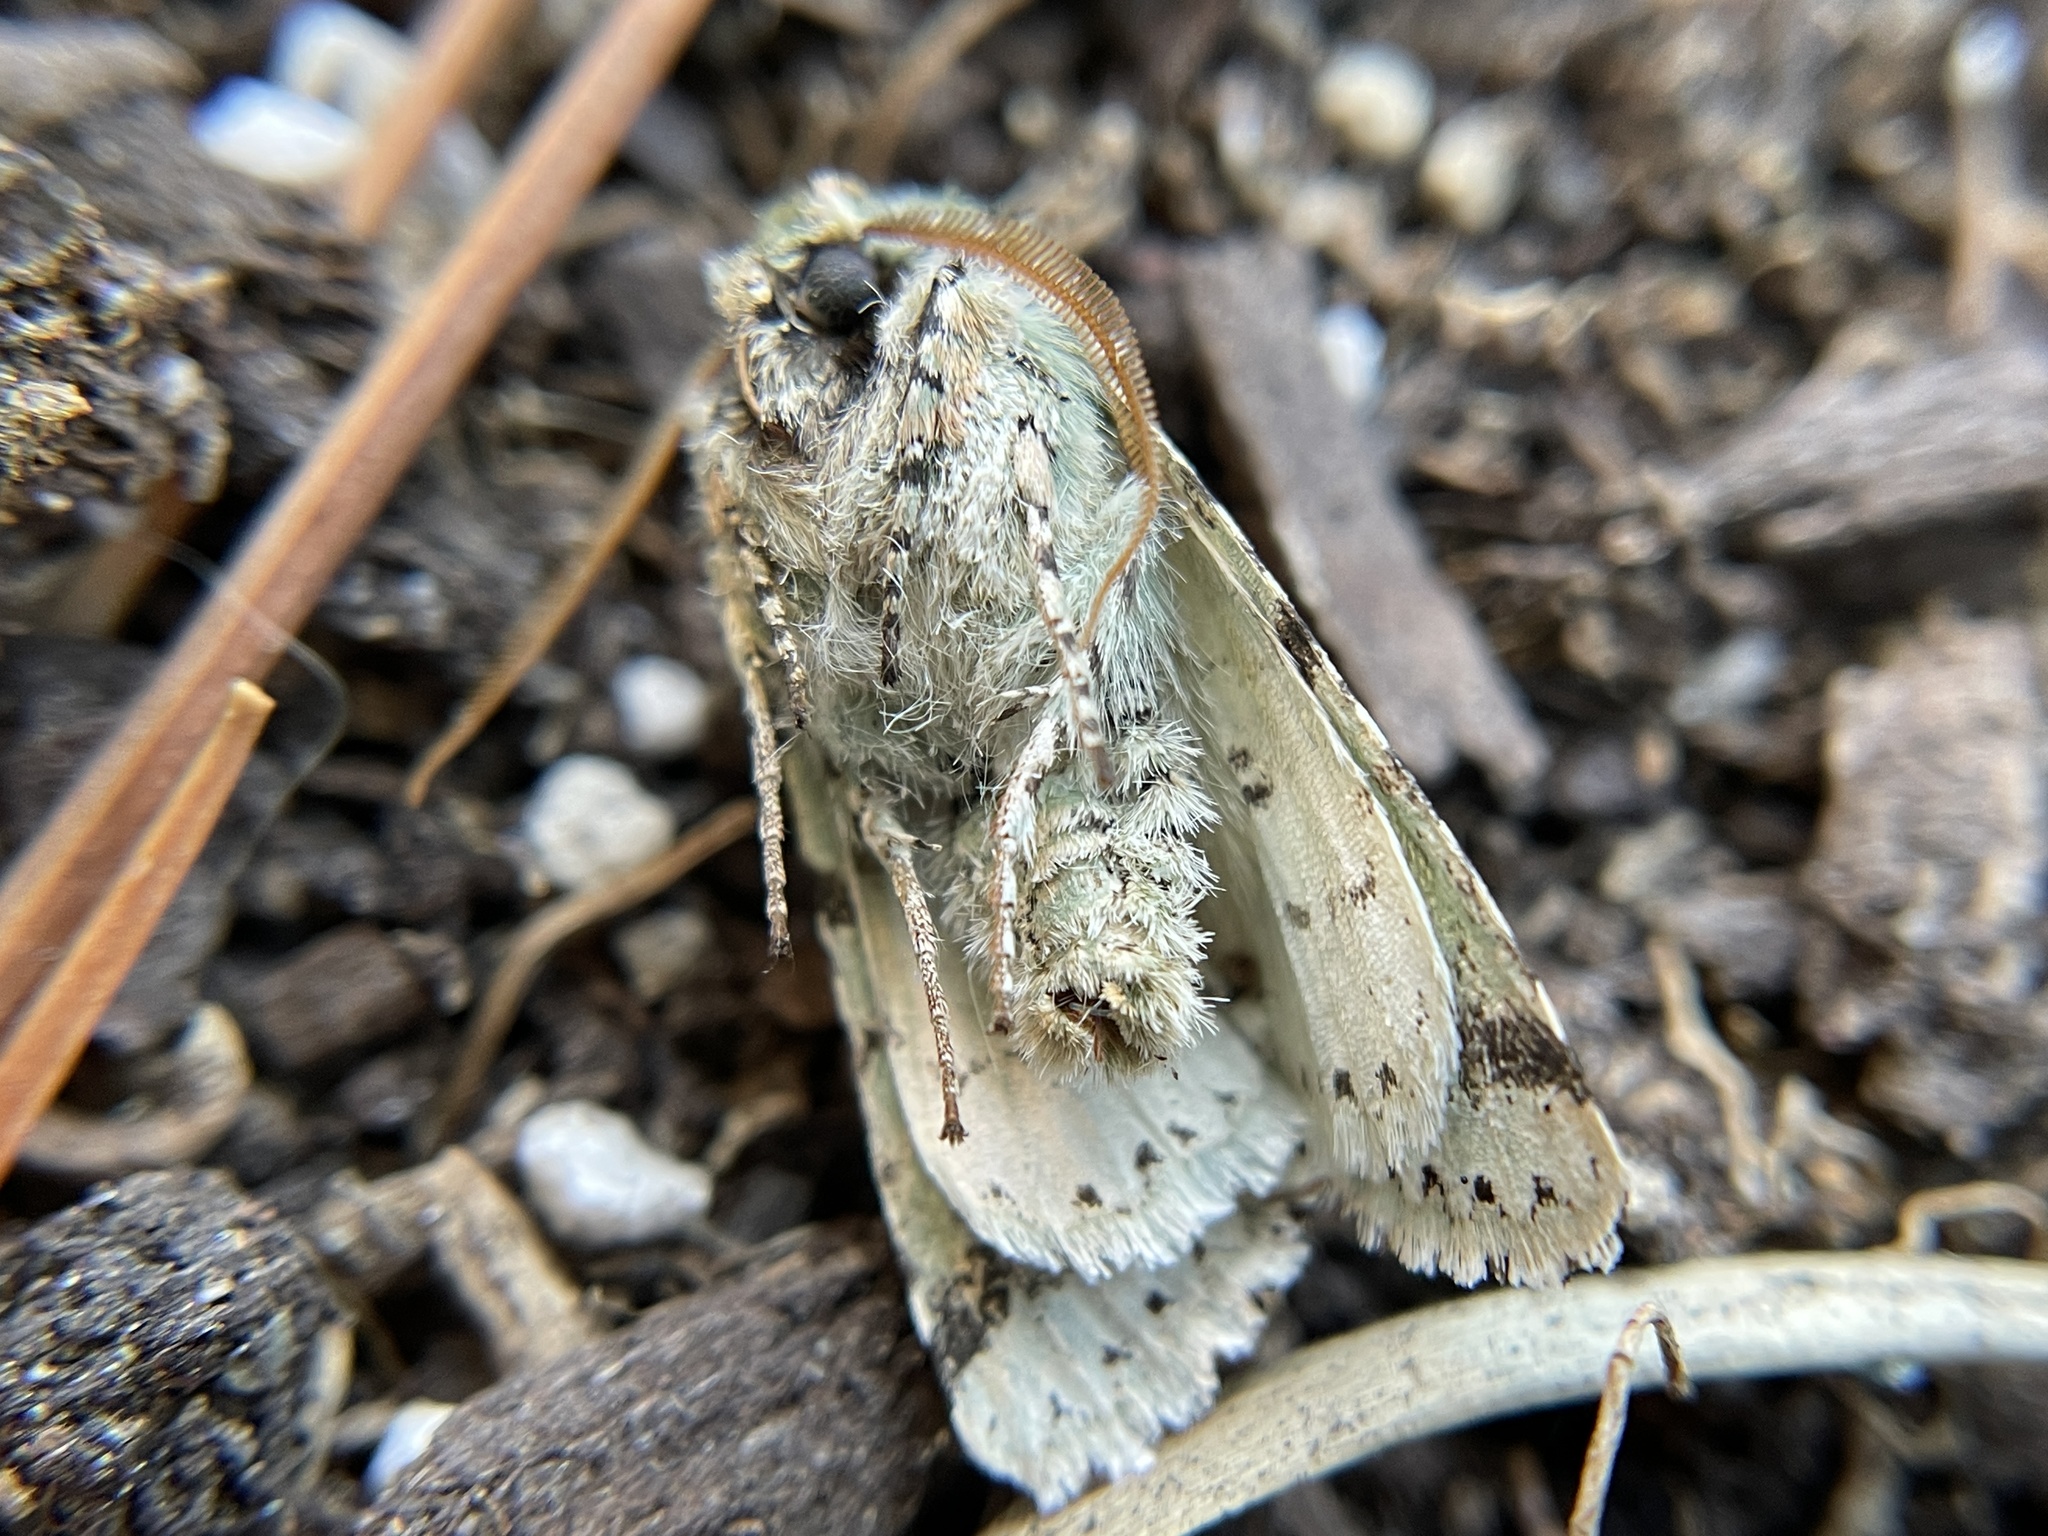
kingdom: Animalia
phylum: Arthropoda
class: Insecta
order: Lepidoptera
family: Noctuidae
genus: Feralia
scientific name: Feralia februalis
